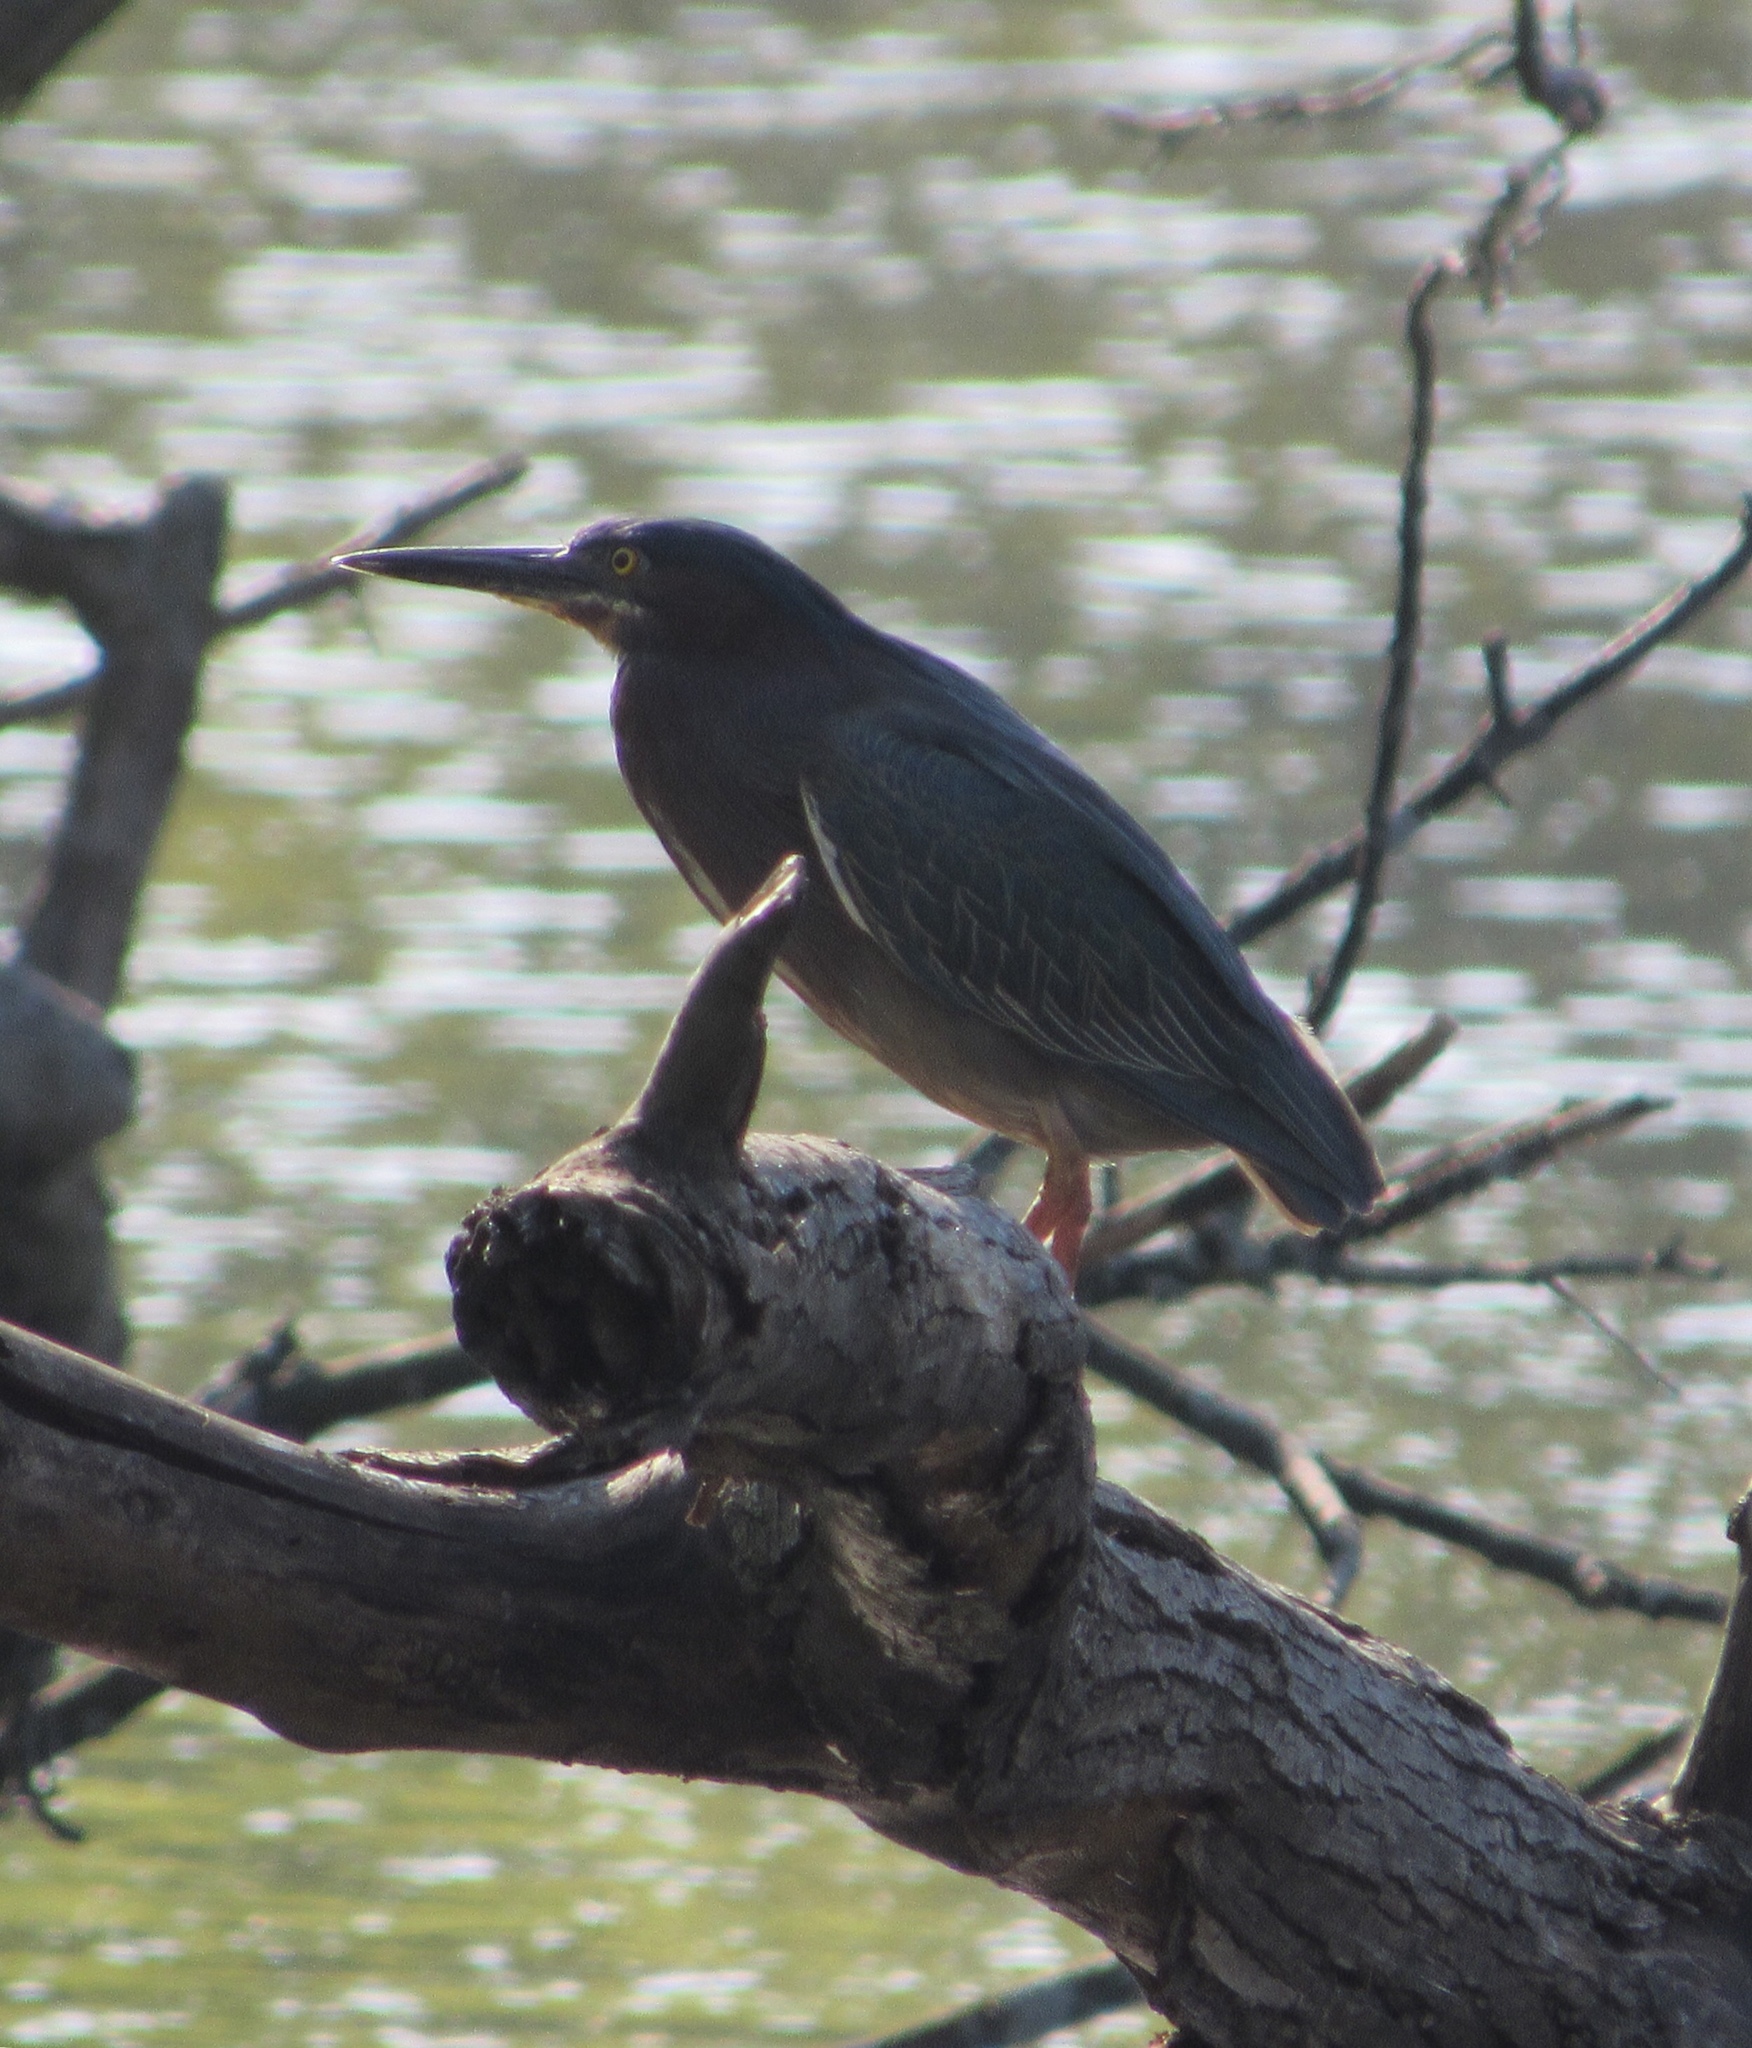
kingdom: Animalia
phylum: Chordata
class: Aves
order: Pelecaniformes
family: Ardeidae
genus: Butorides
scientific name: Butorides virescens
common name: Green heron
